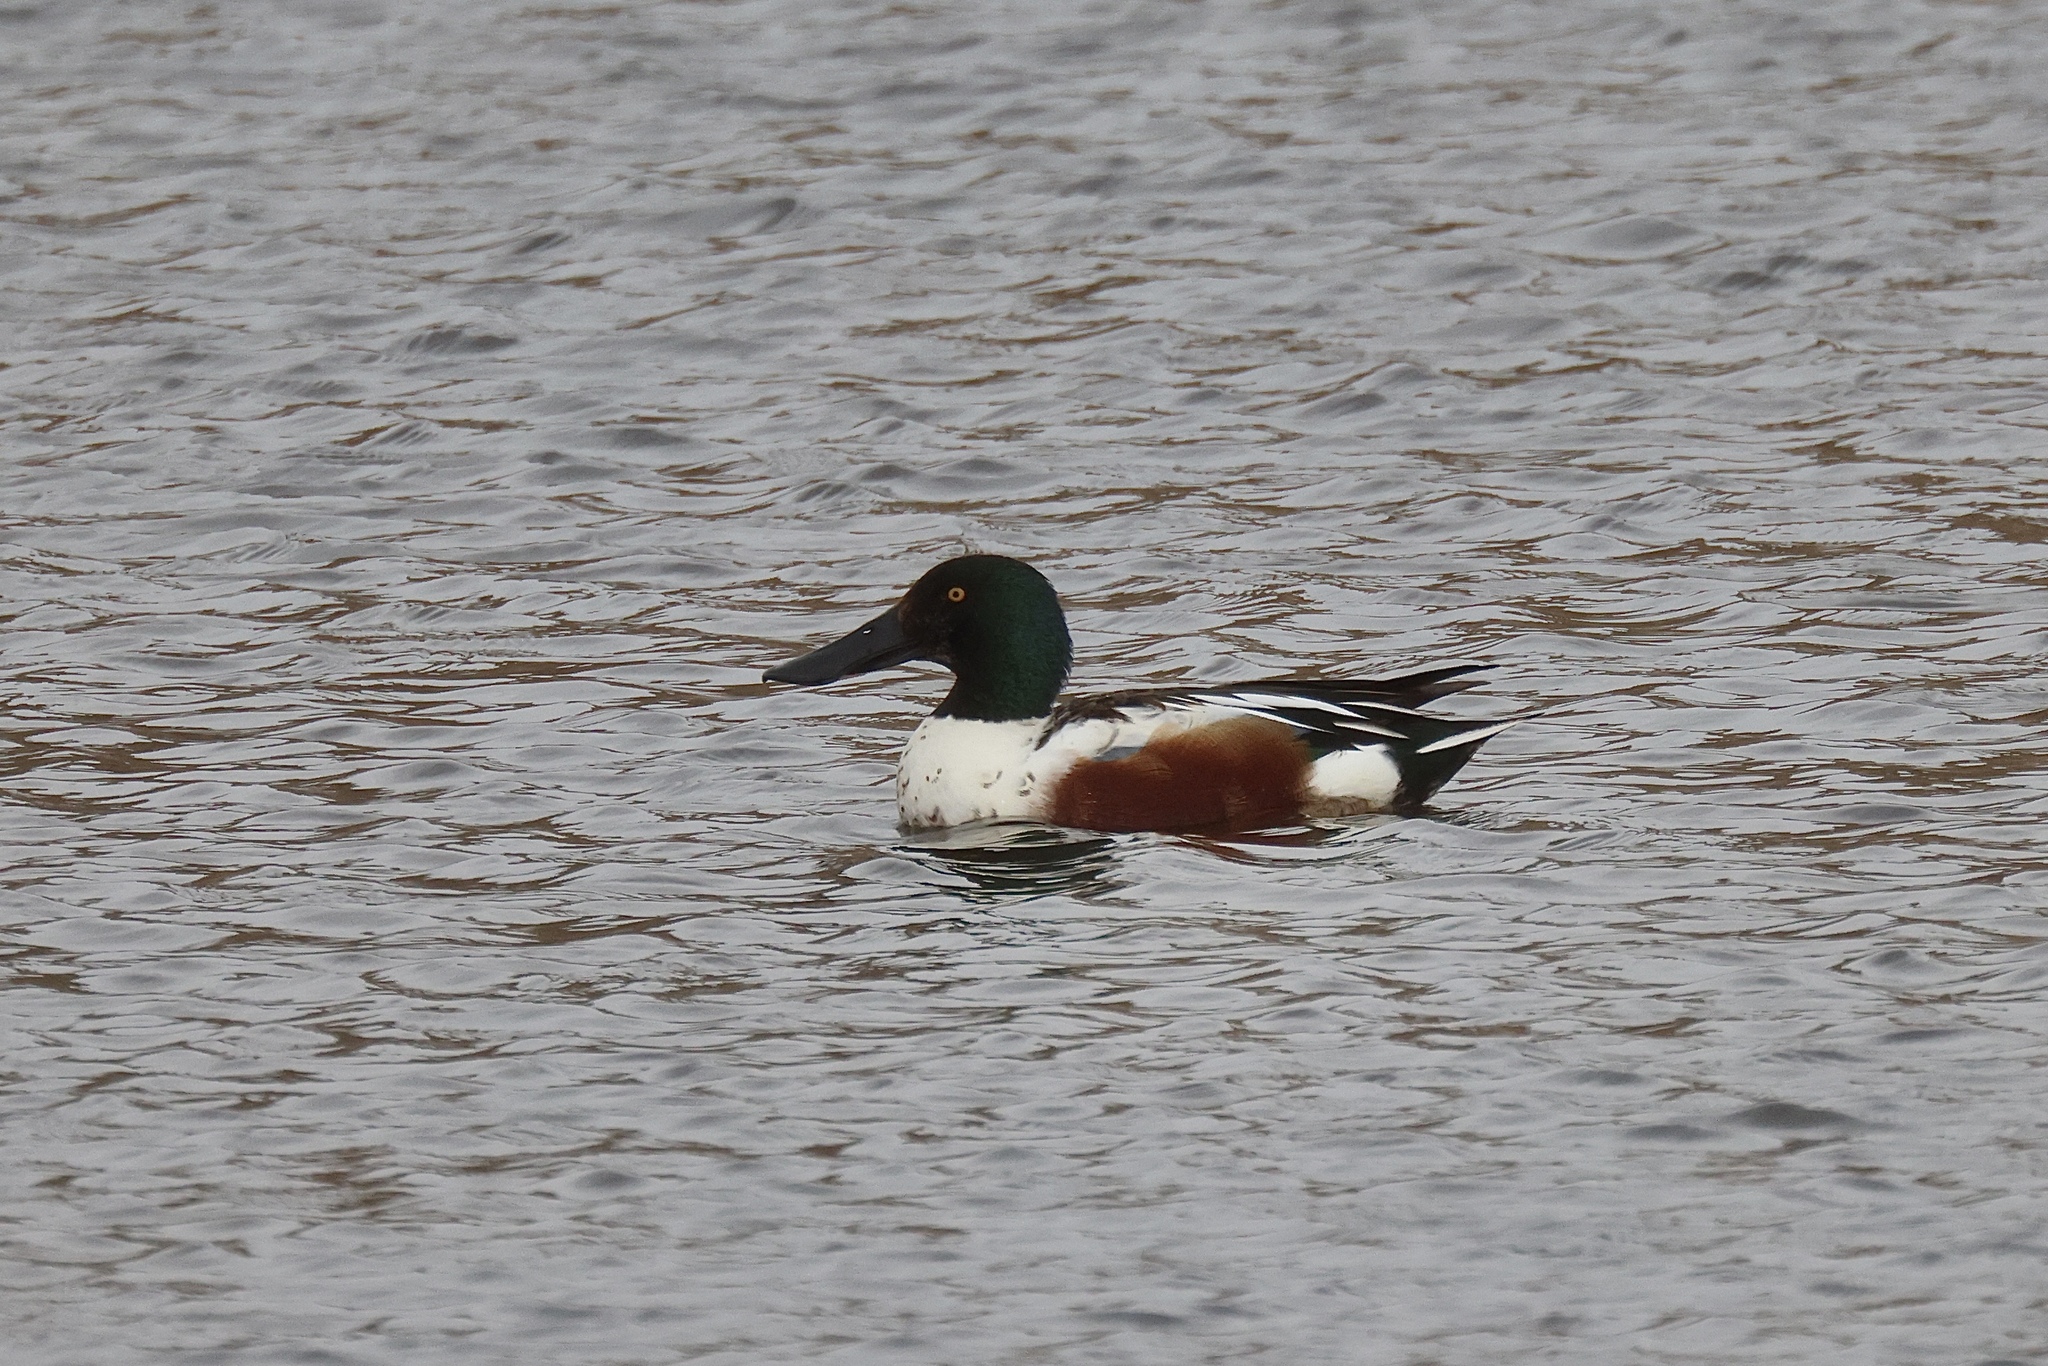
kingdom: Animalia
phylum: Chordata
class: Aves
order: Anseriformes
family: Anatidae
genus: Spatula
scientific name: Spatula clypeata
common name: Northern shoveler
